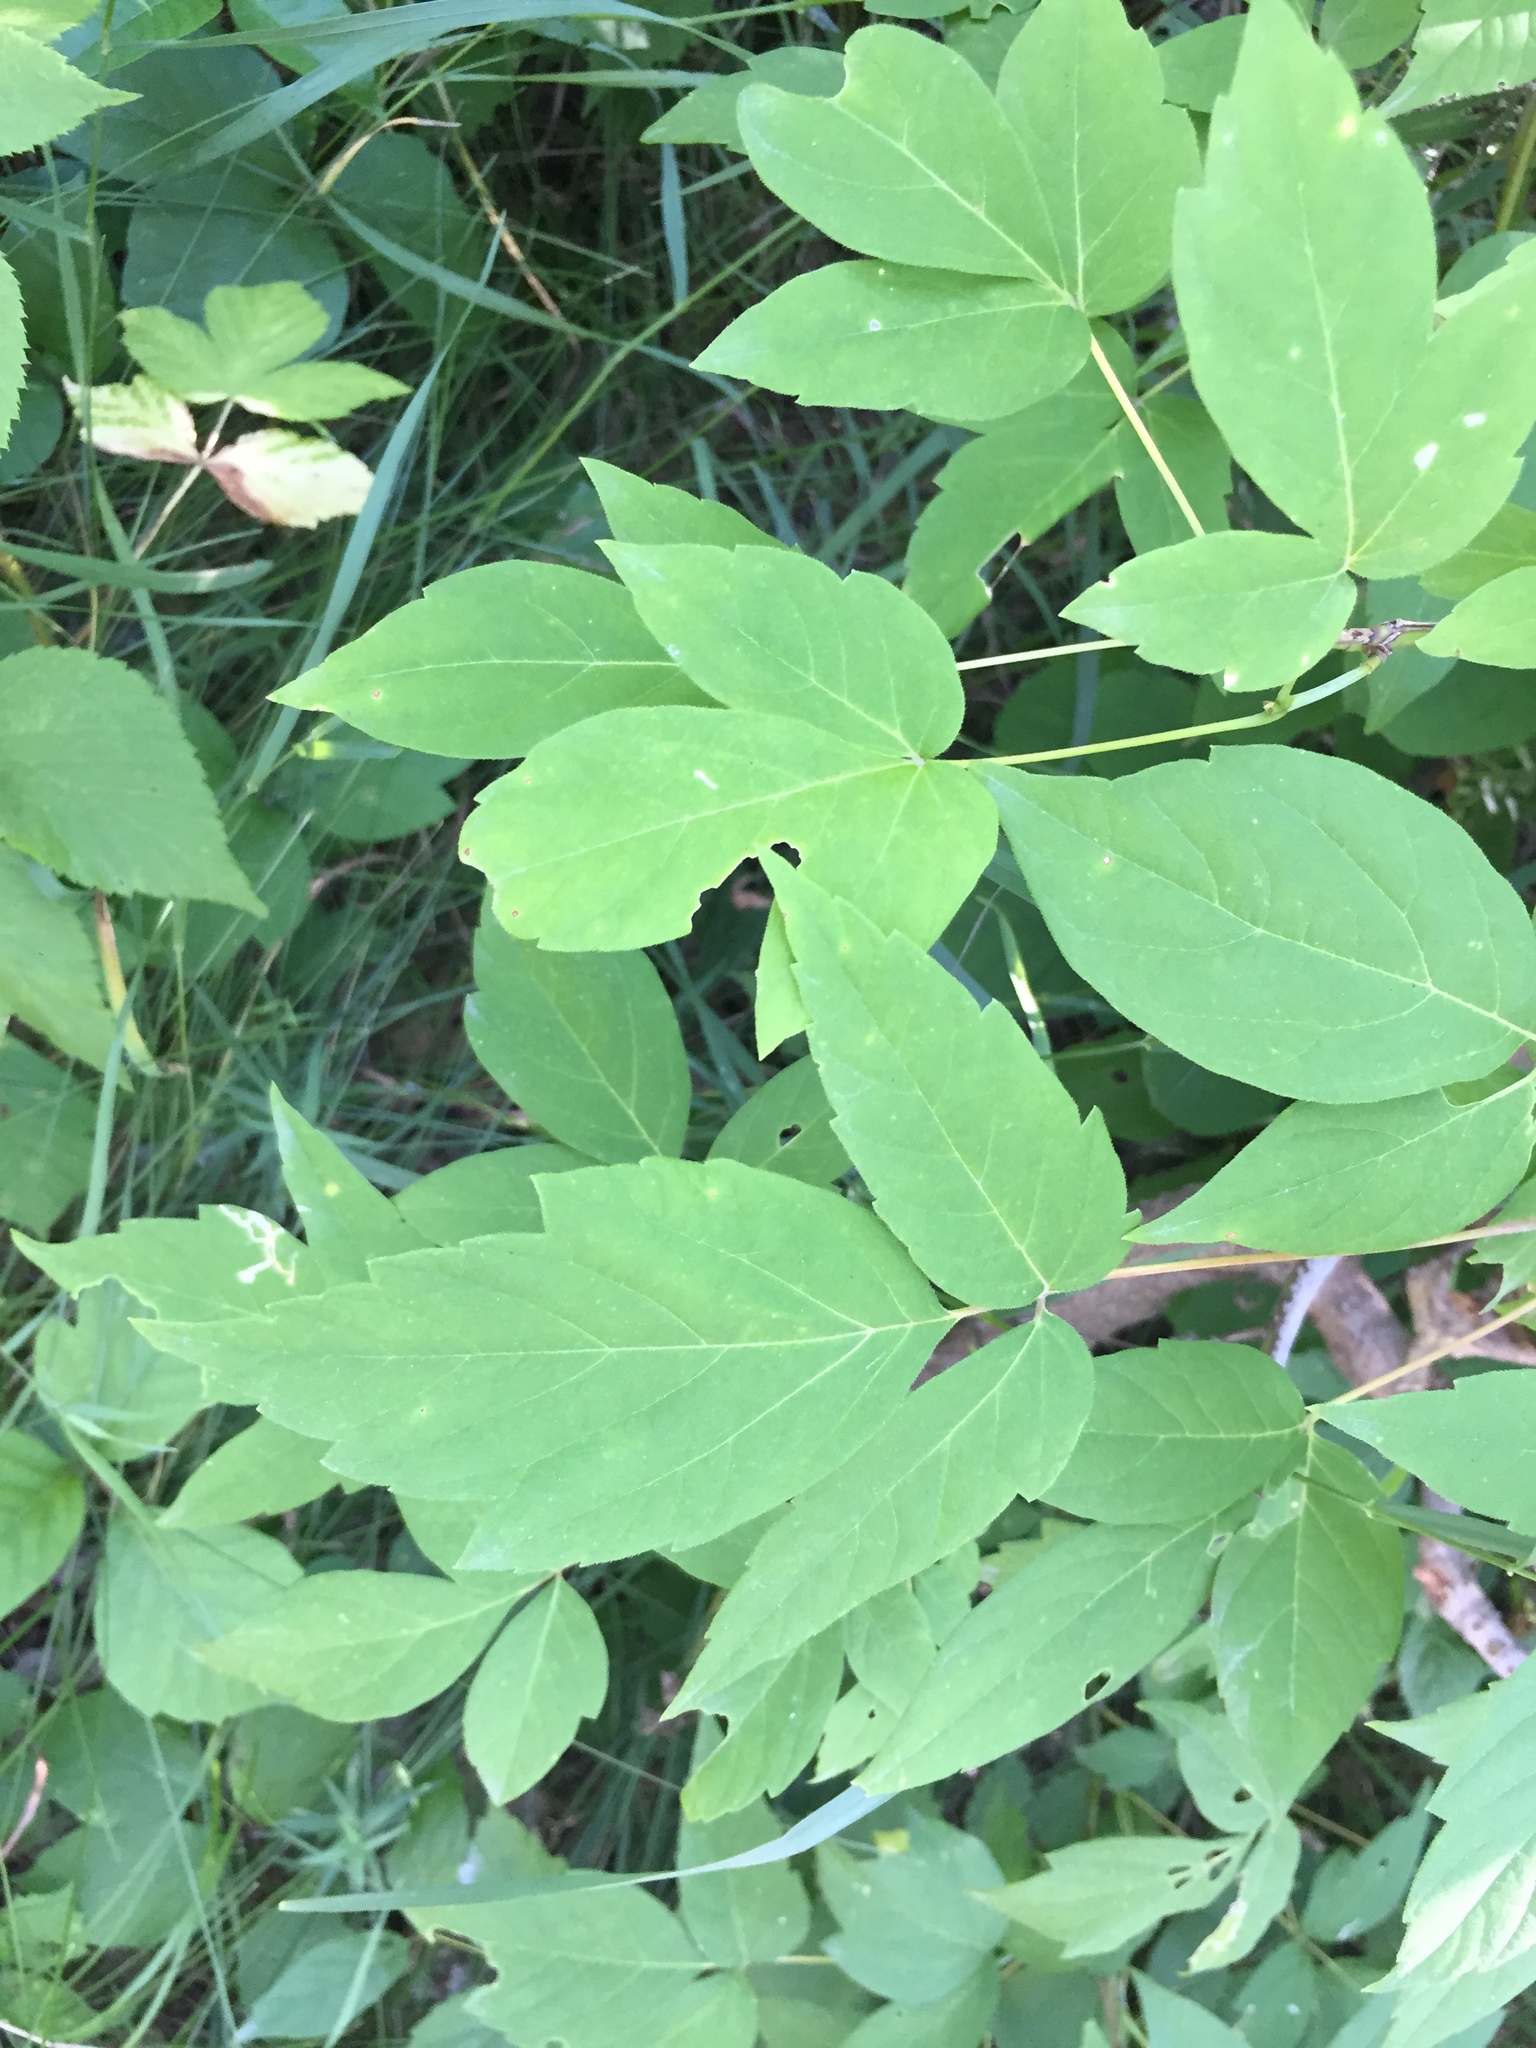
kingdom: Plantae
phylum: Tracheophyta
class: Magnoliopsida
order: Sapindales
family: Sapindaceae
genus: Acer
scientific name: Acer negundo
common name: Ashleaf maple
